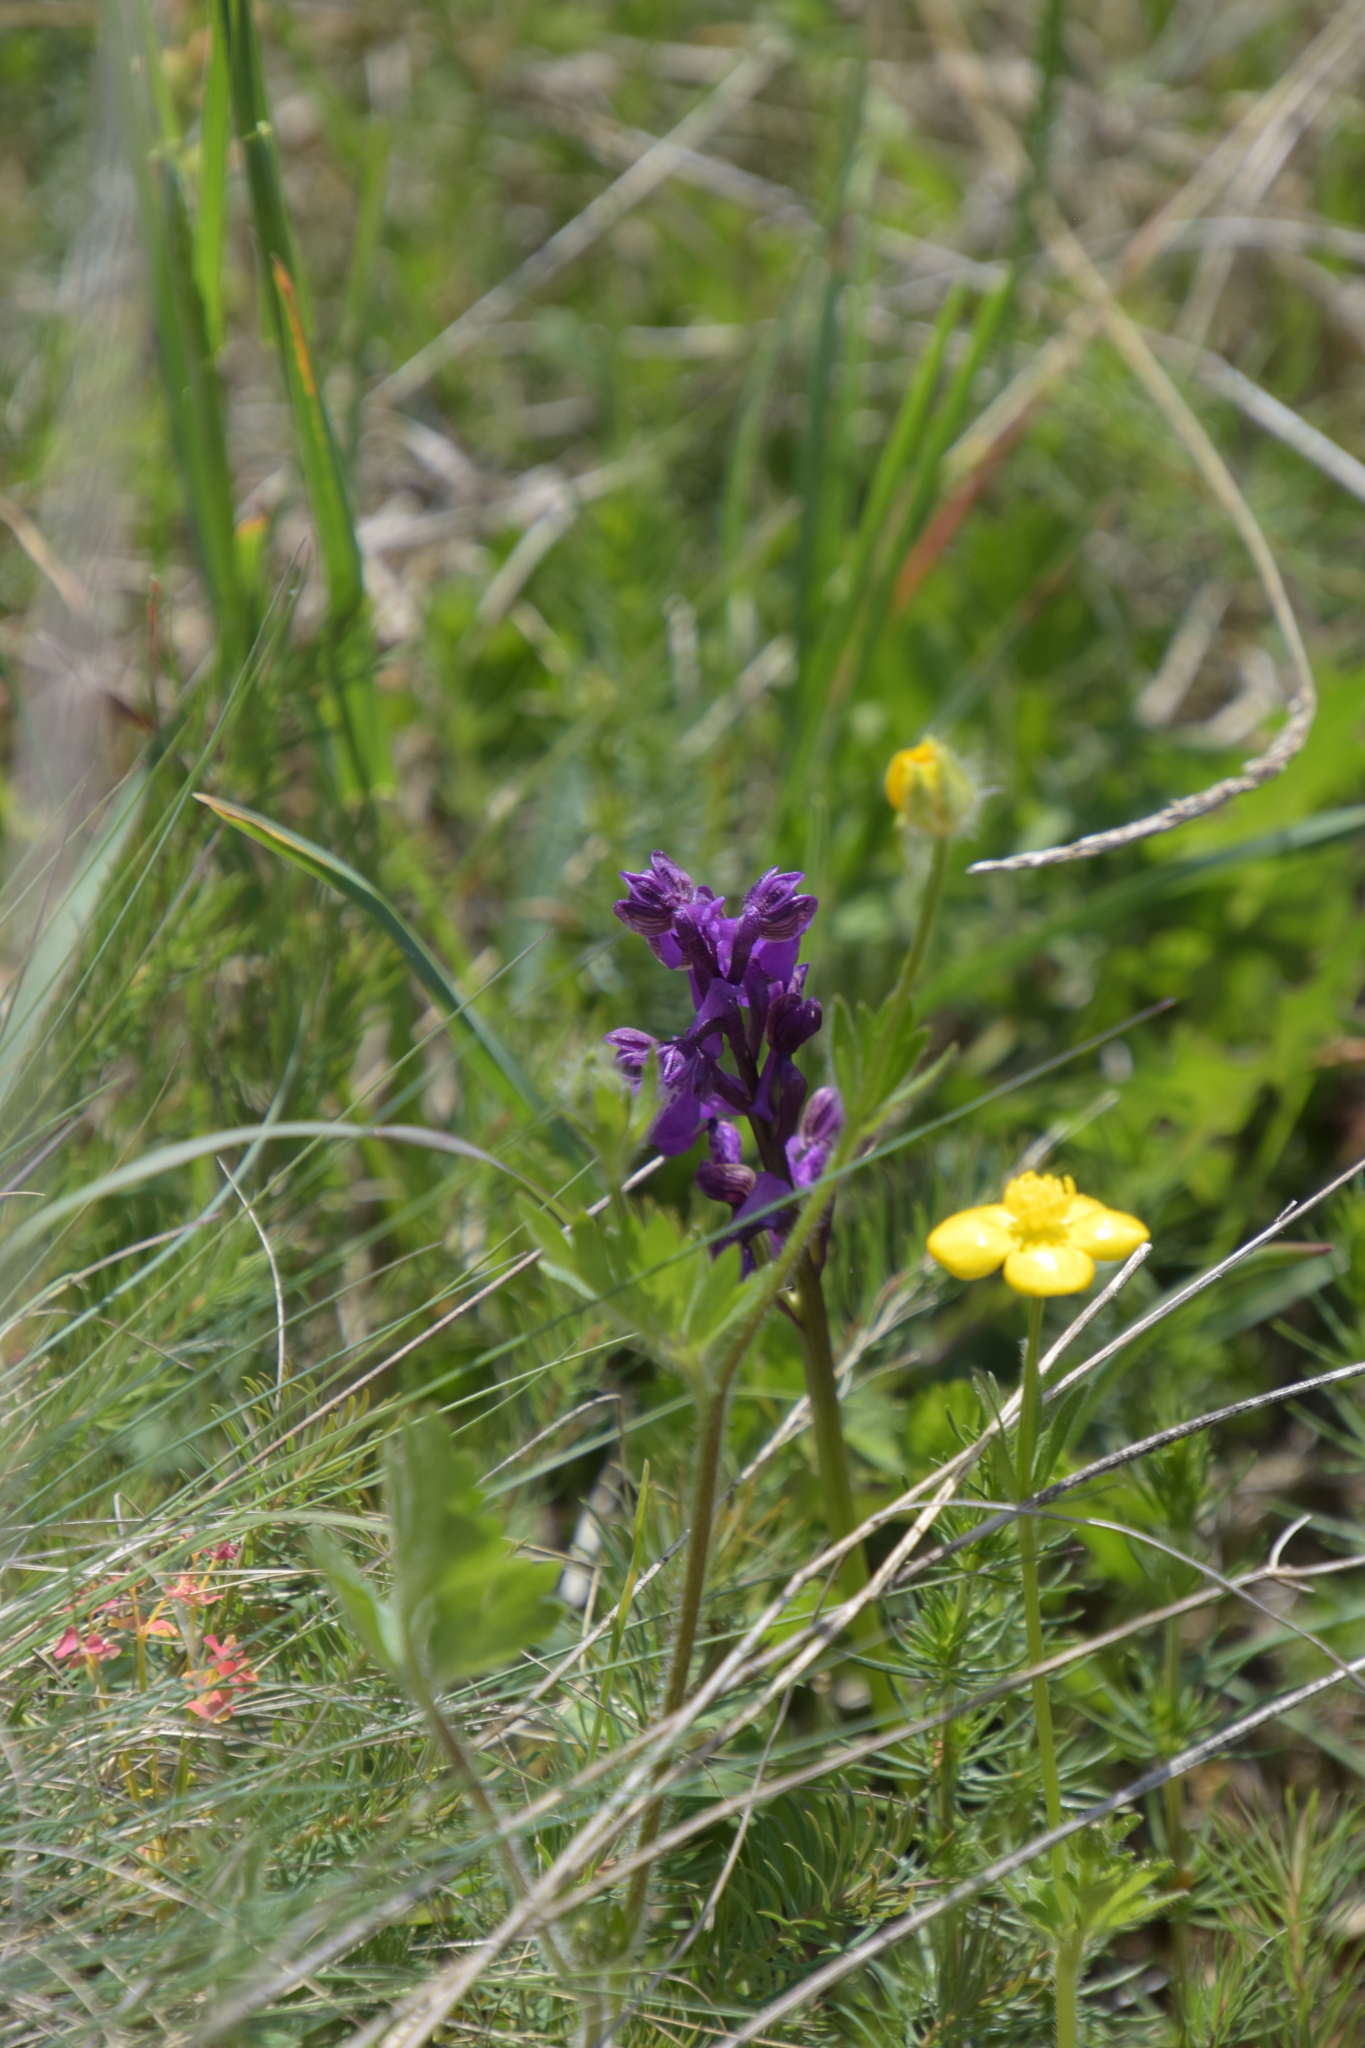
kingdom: Plantae
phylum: Tracheophyta
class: Liliopsida
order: Asparagales
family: Orchidaceae
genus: Anacamptis
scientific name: Anacamptis morio
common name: Green-winged orchid
